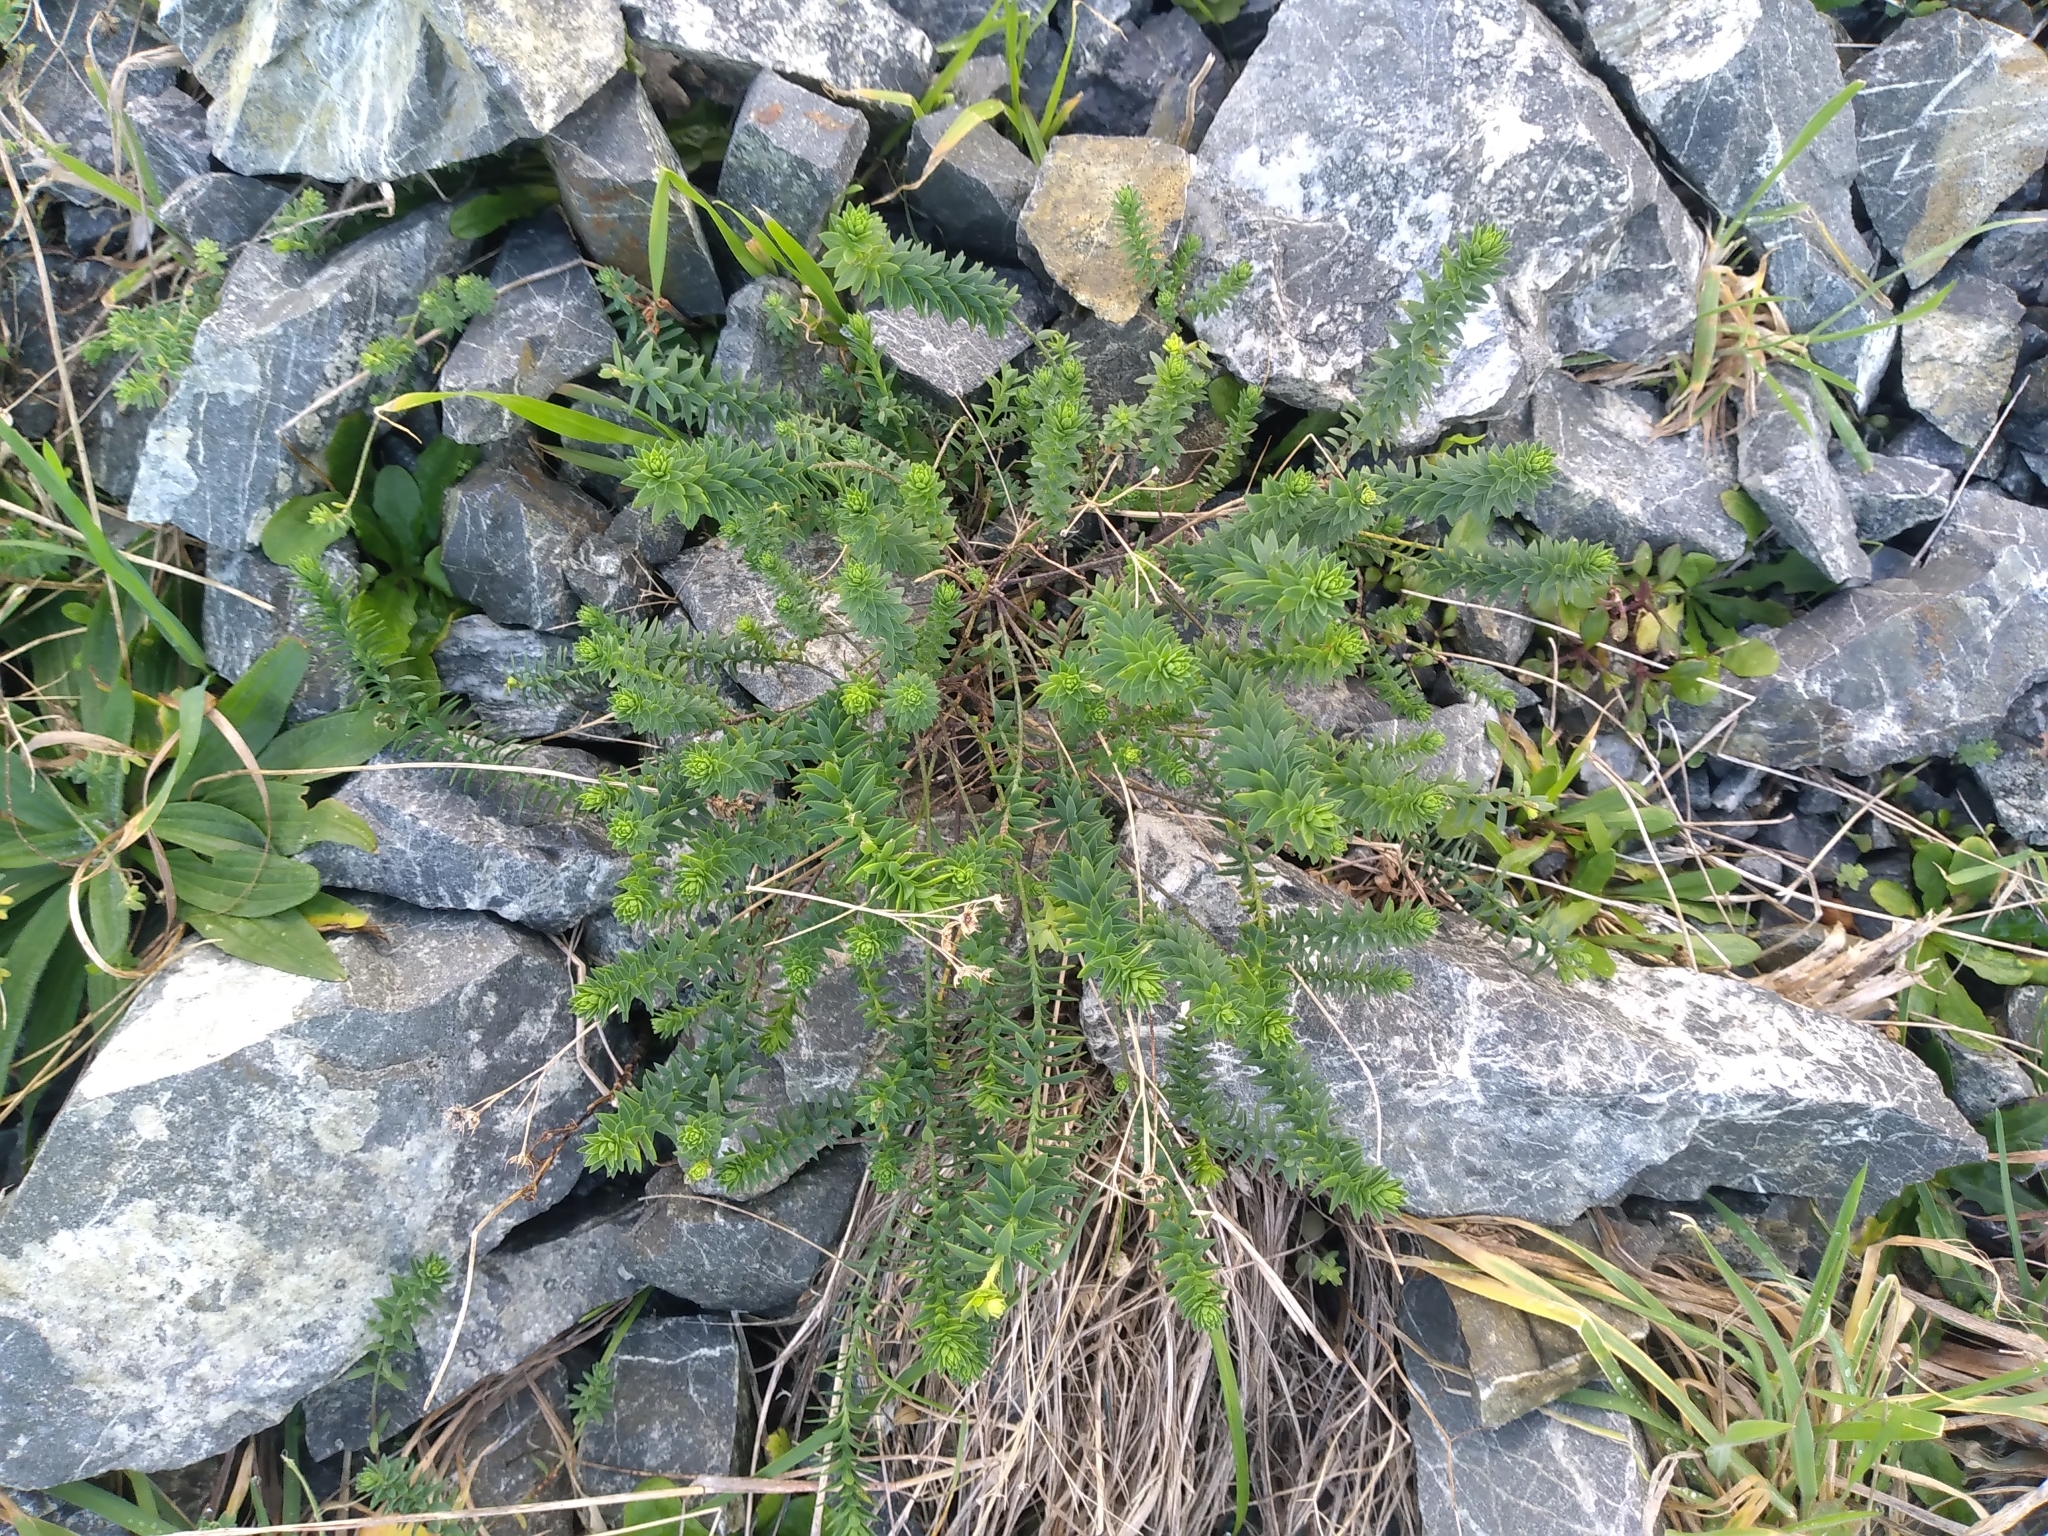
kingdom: Plantae
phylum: Tracheophyta
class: Magnoliopsida
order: Malpighiales
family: Linaceae
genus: Linum
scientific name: Linum monogynum
